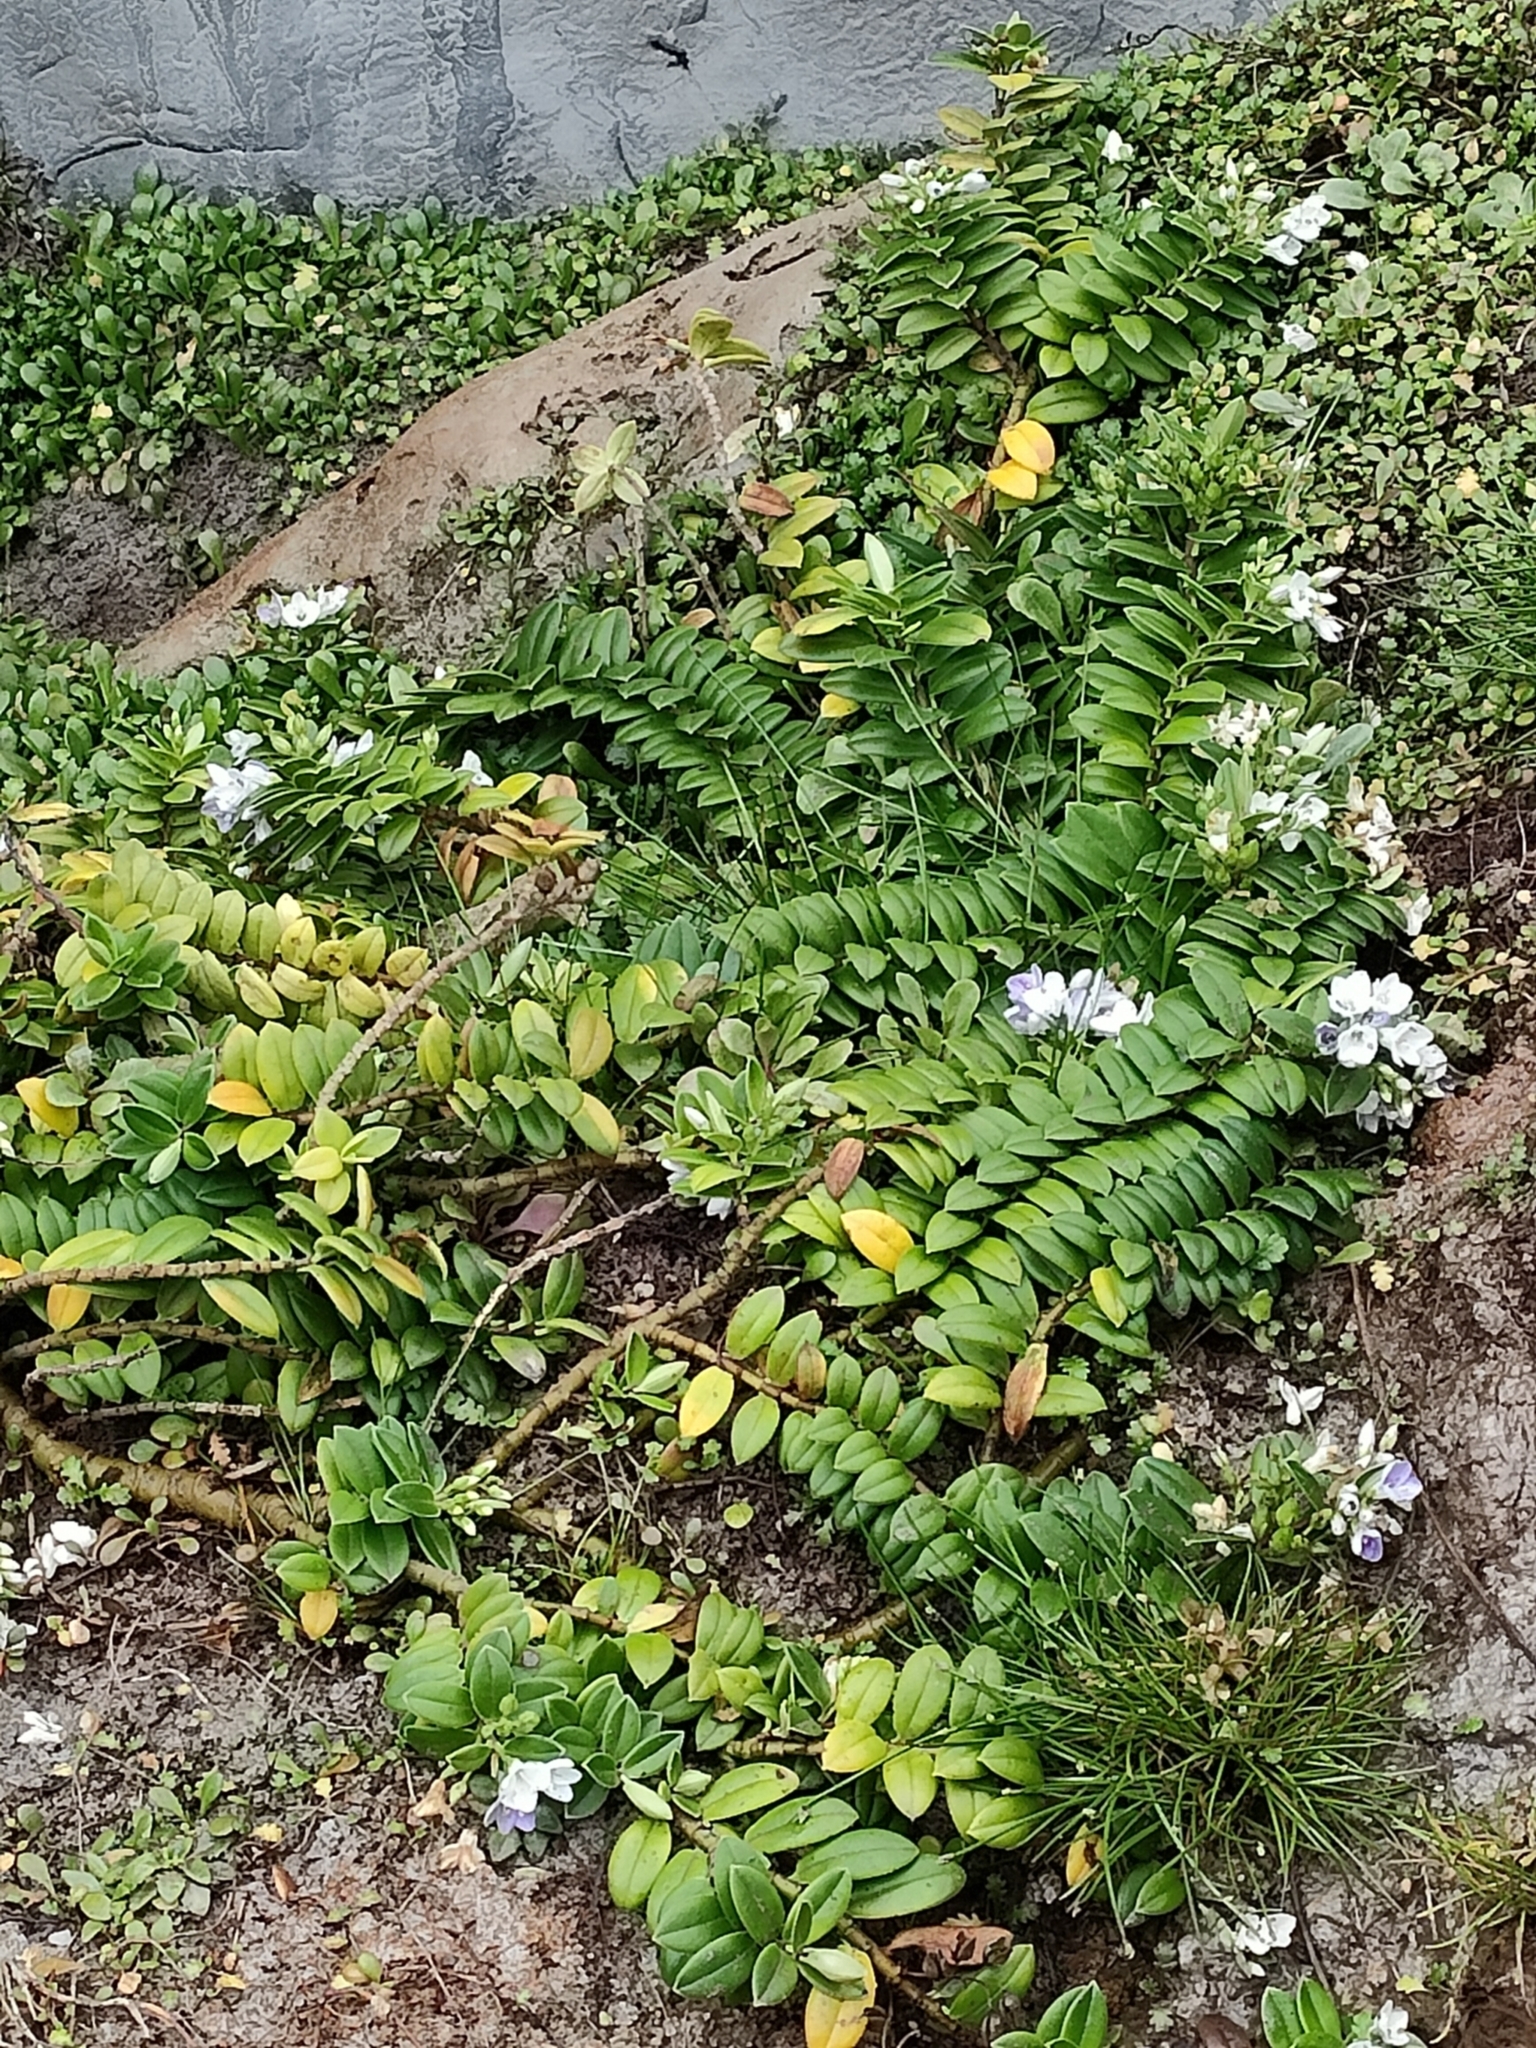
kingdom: Plantae
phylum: Tracheophyta
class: Magnoliopsida
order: Lamiales
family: Plantaginaceae
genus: Veronica
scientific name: Veronica elliptica
